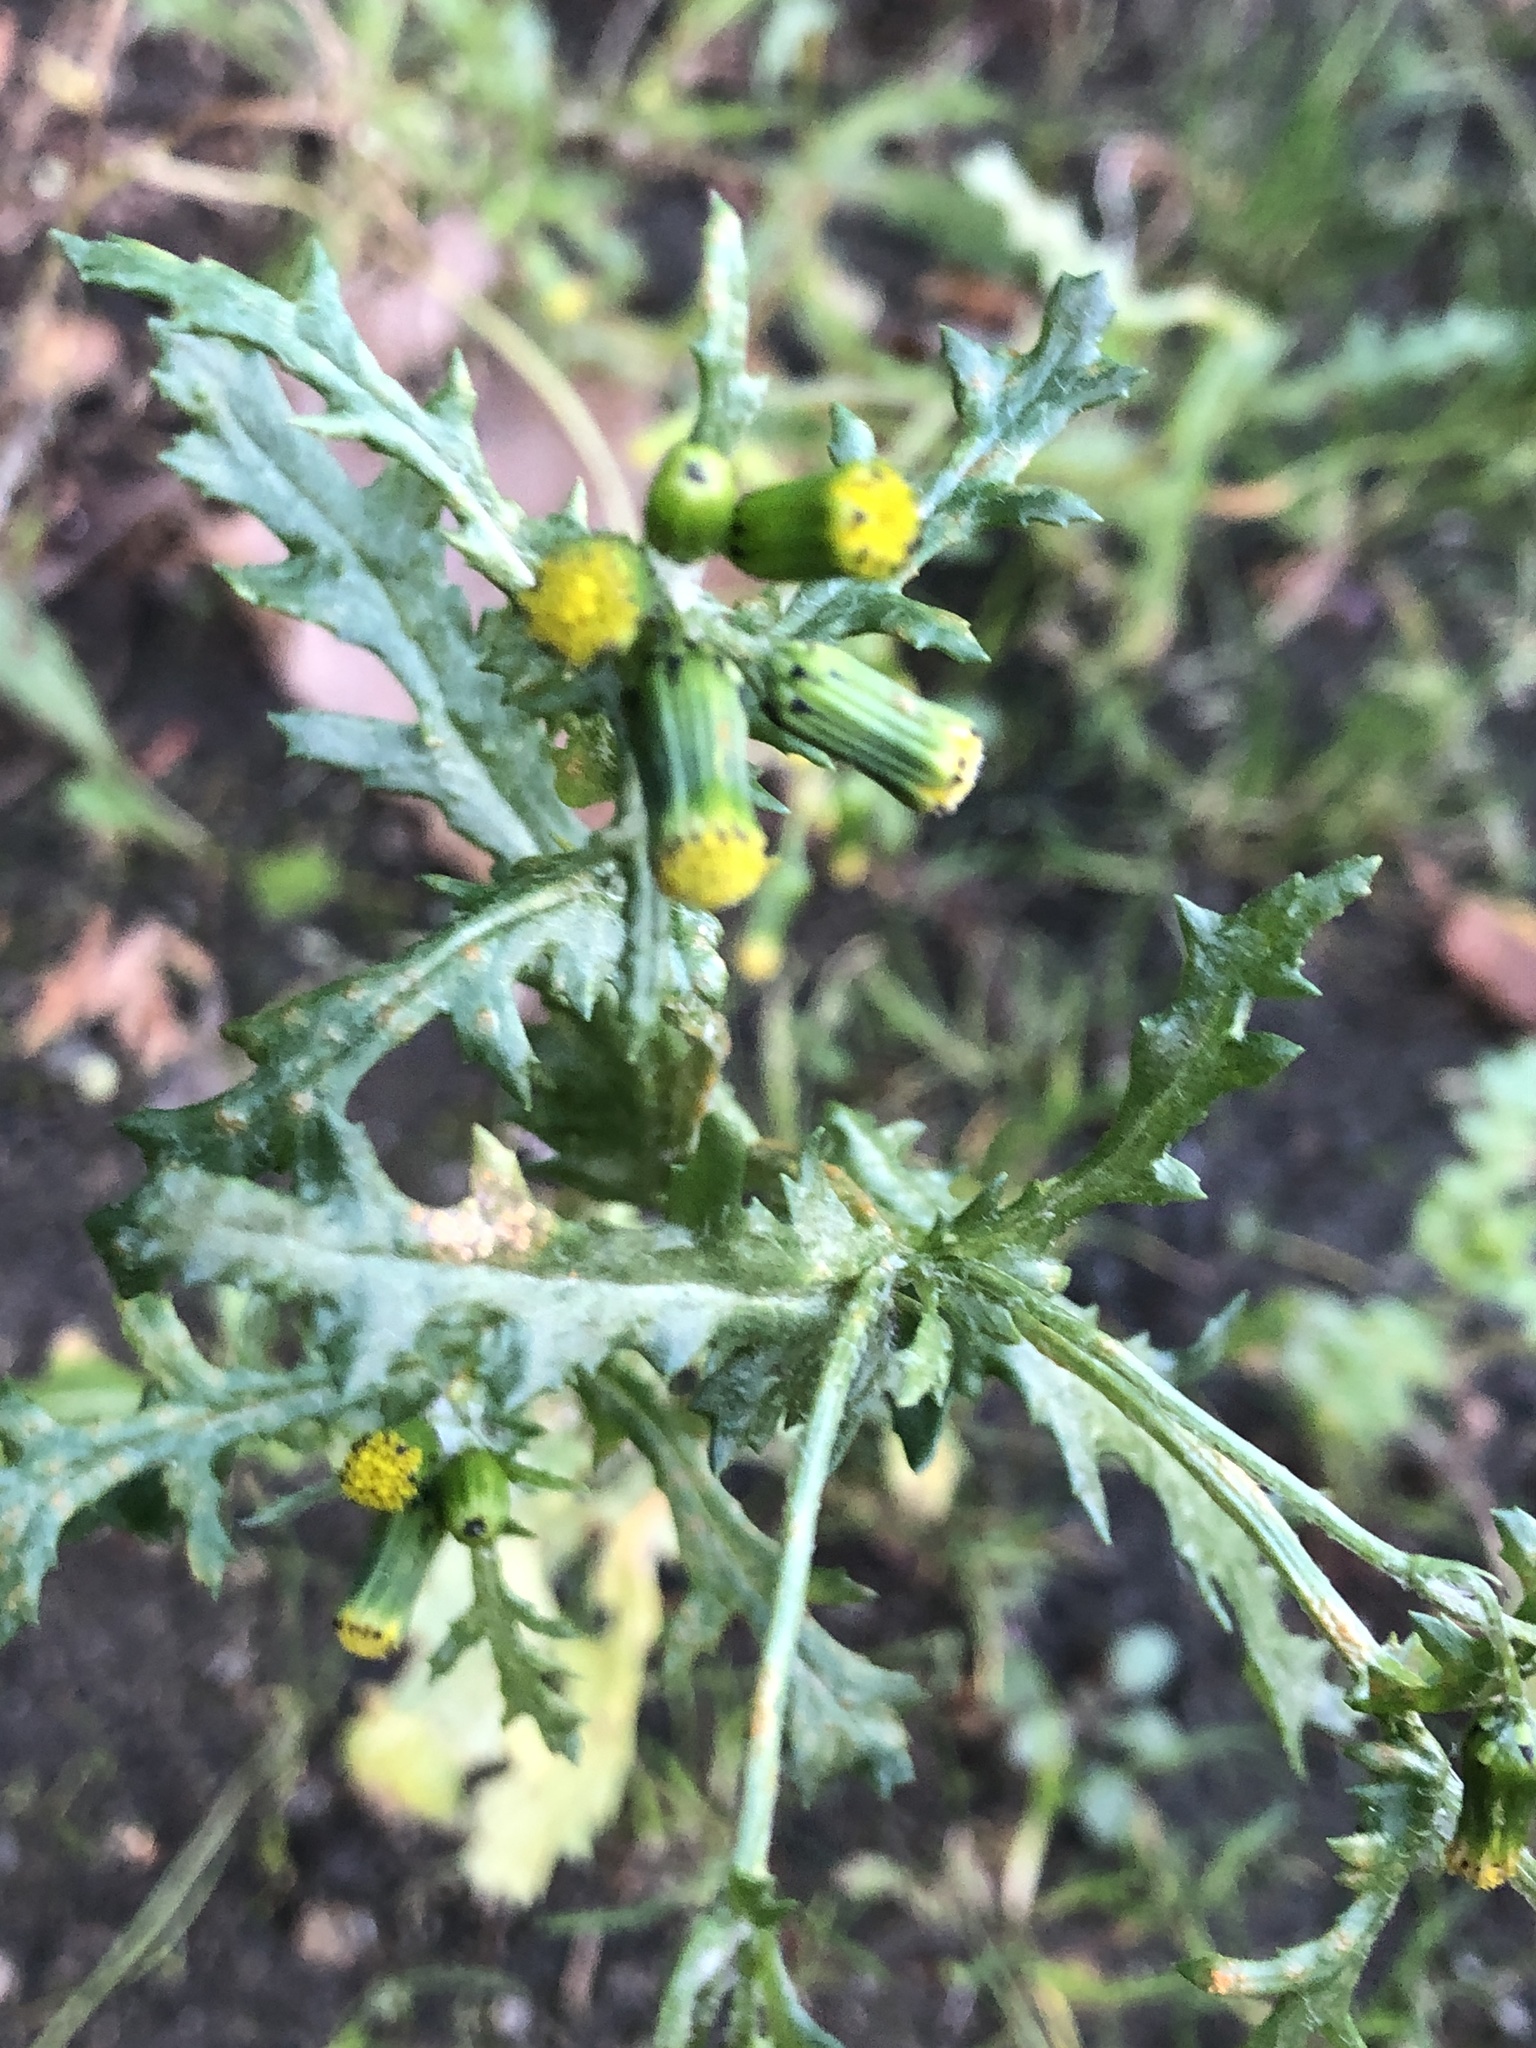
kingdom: Plantae
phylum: Tracheophyta
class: Magnoliopsida
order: Asterales
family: Asteraceae
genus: Senecio
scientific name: Senecio vulgaris
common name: Old-man-in-the-spring
